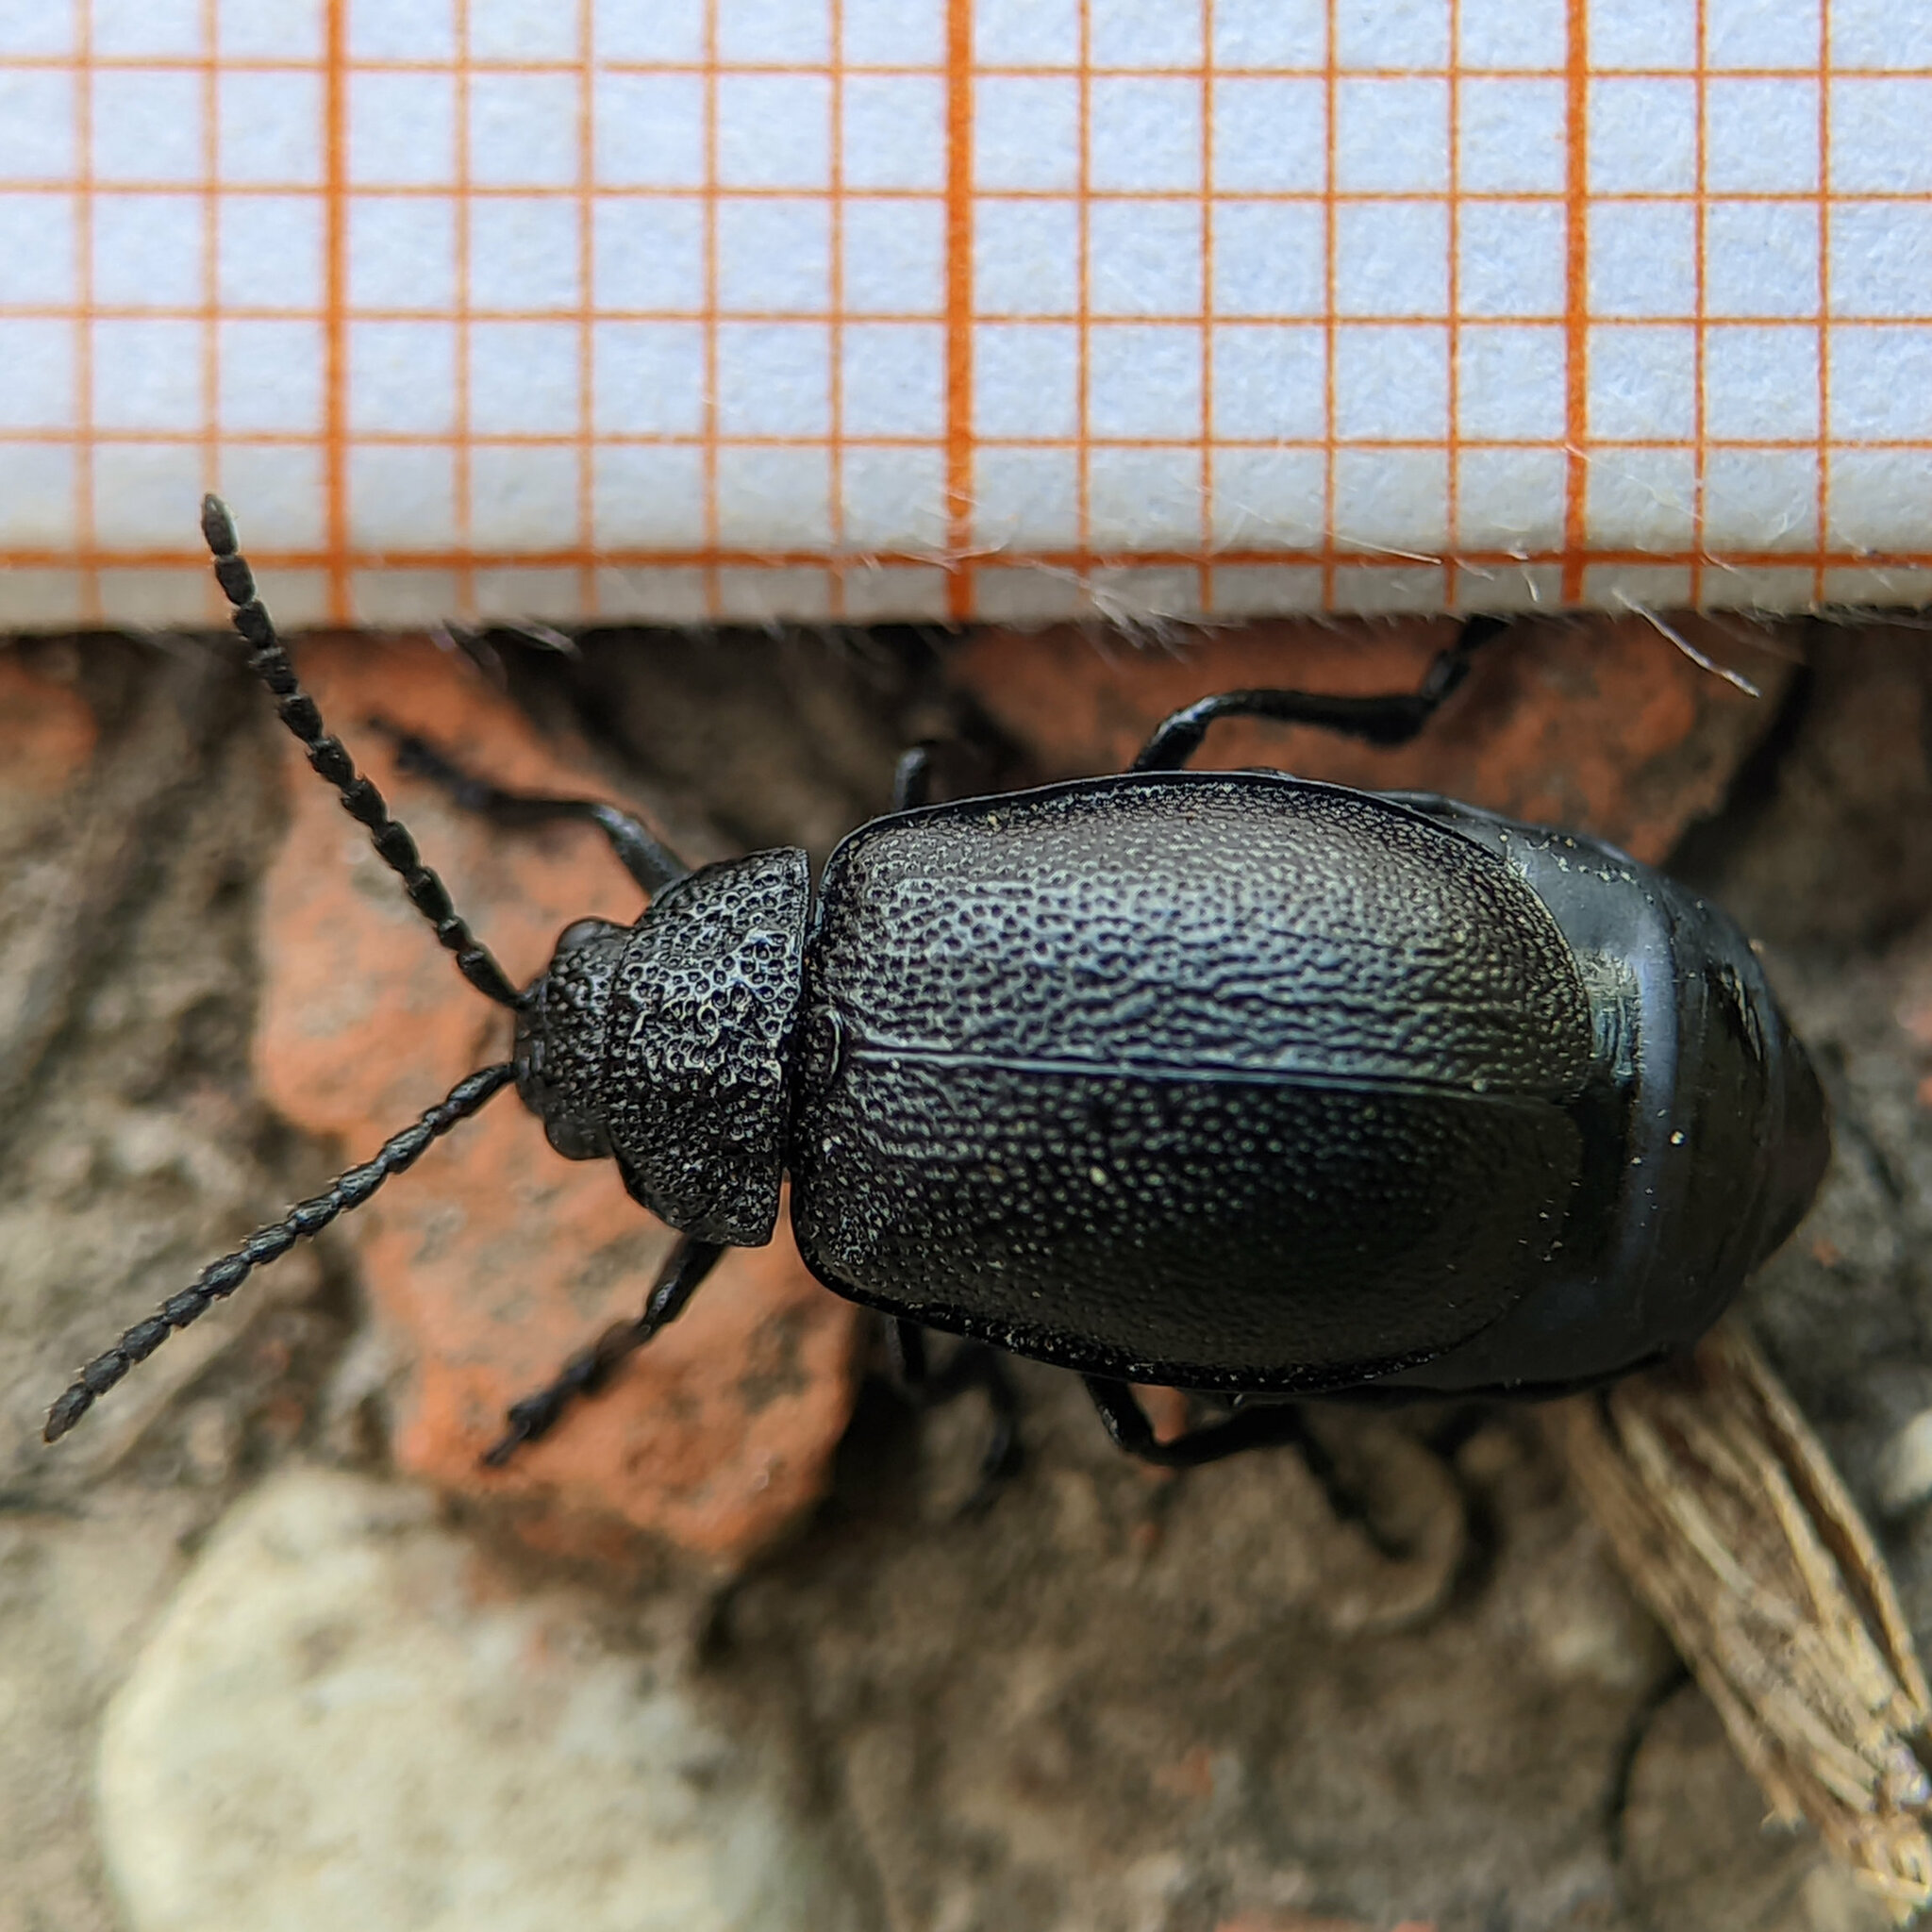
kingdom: Animalia
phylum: Arthropoda
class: Insecta
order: Coleoptera
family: Chrysomelidae
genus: Galeruca
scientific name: Galeruca tanaceti
